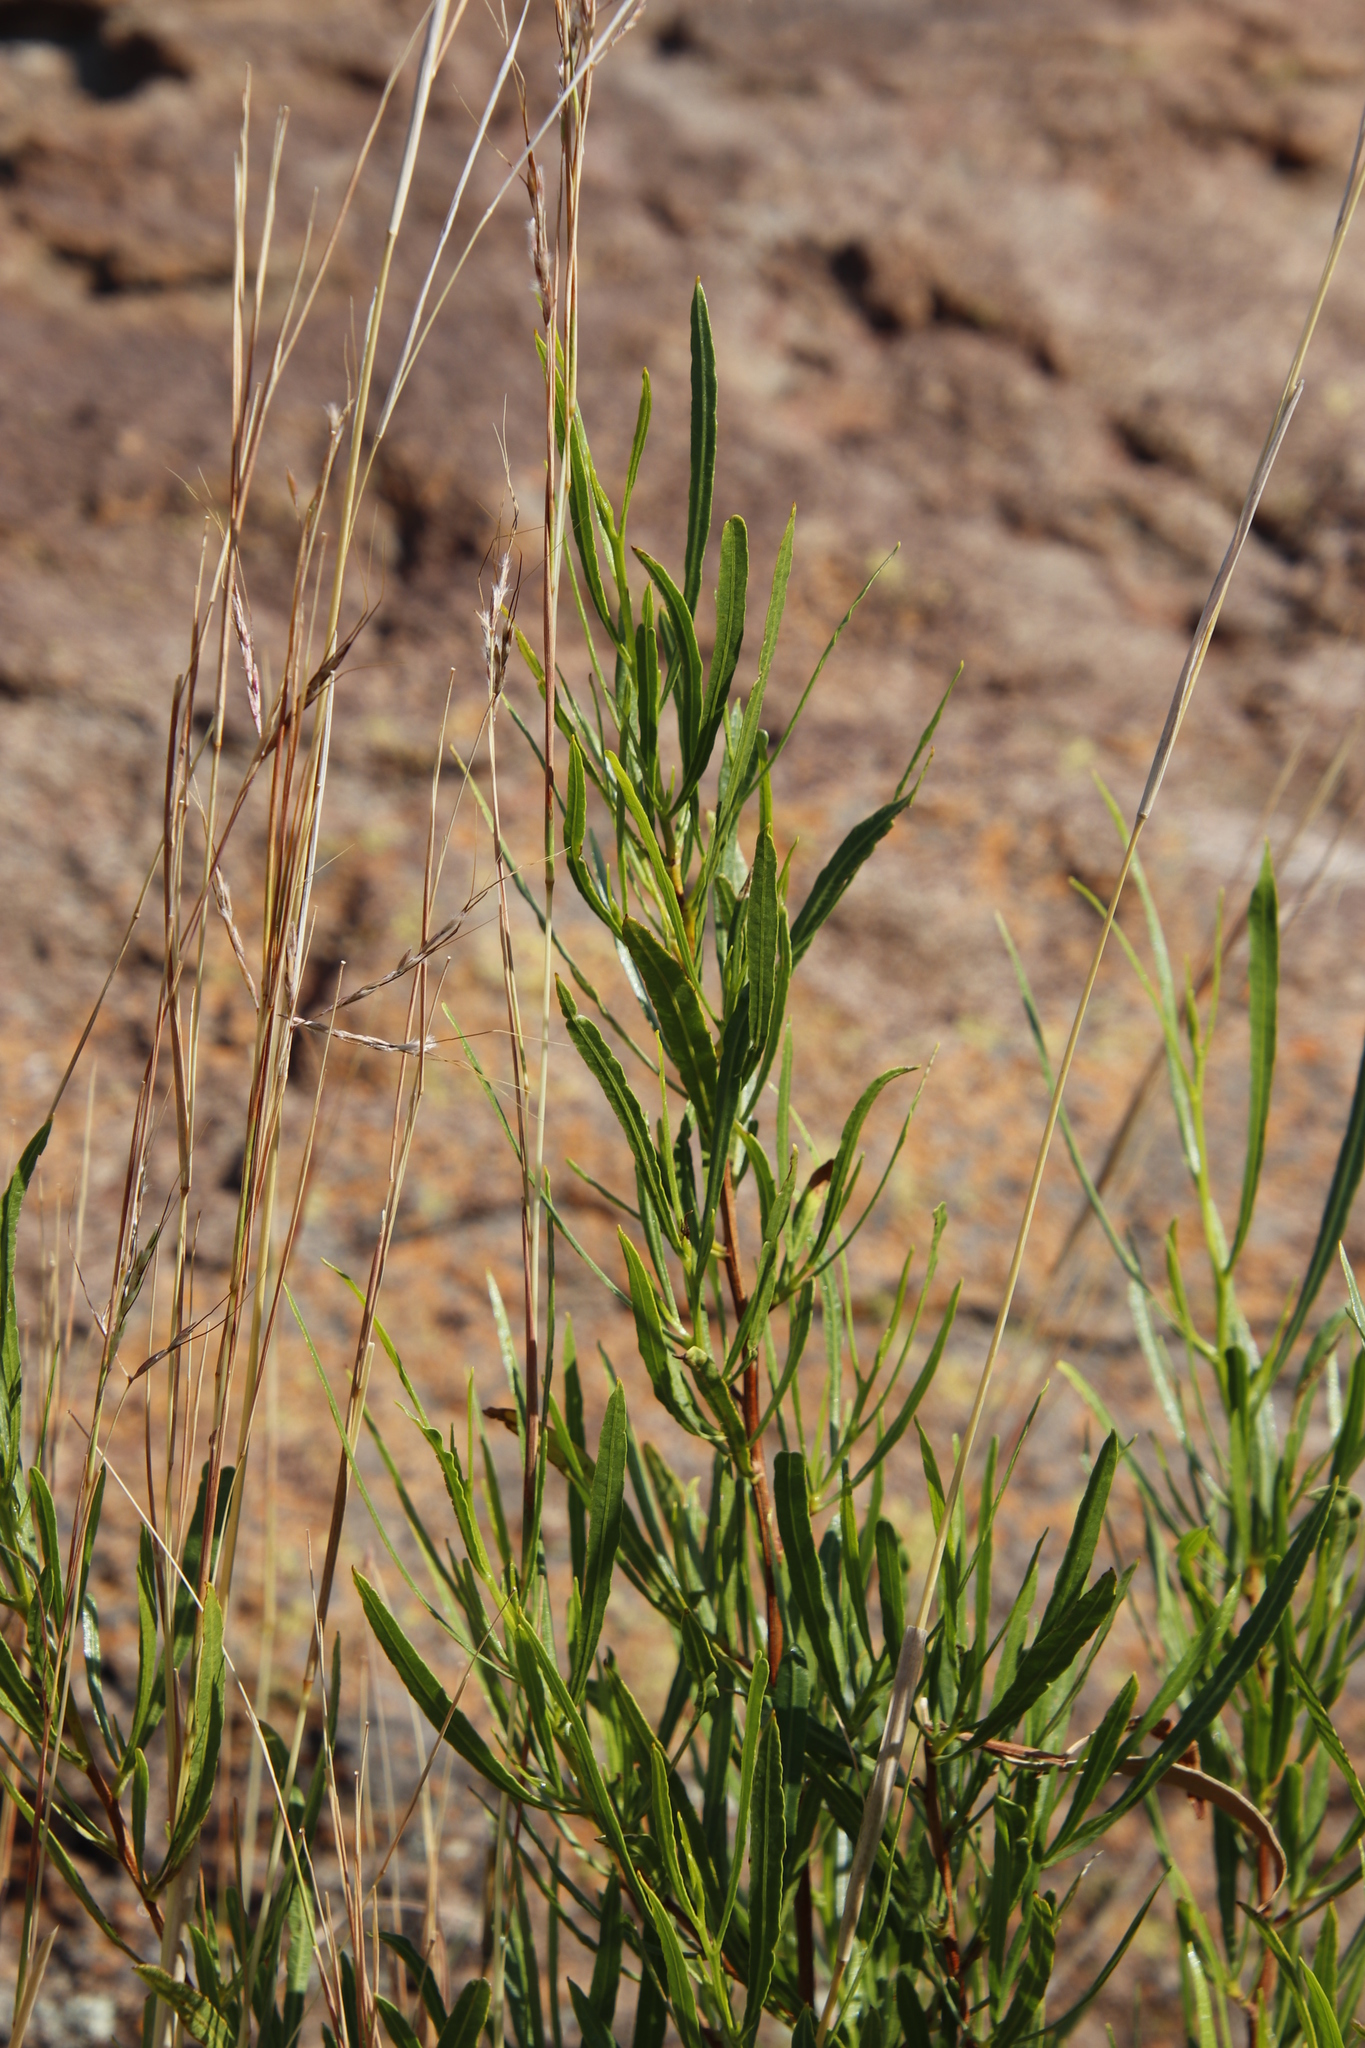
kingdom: Plantae
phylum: Tracheophyta
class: Magnoliopsida
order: Sapindales
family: Sapindaceae
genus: Dodonaea
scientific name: Dodonaea viscosa
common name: Hopbush
